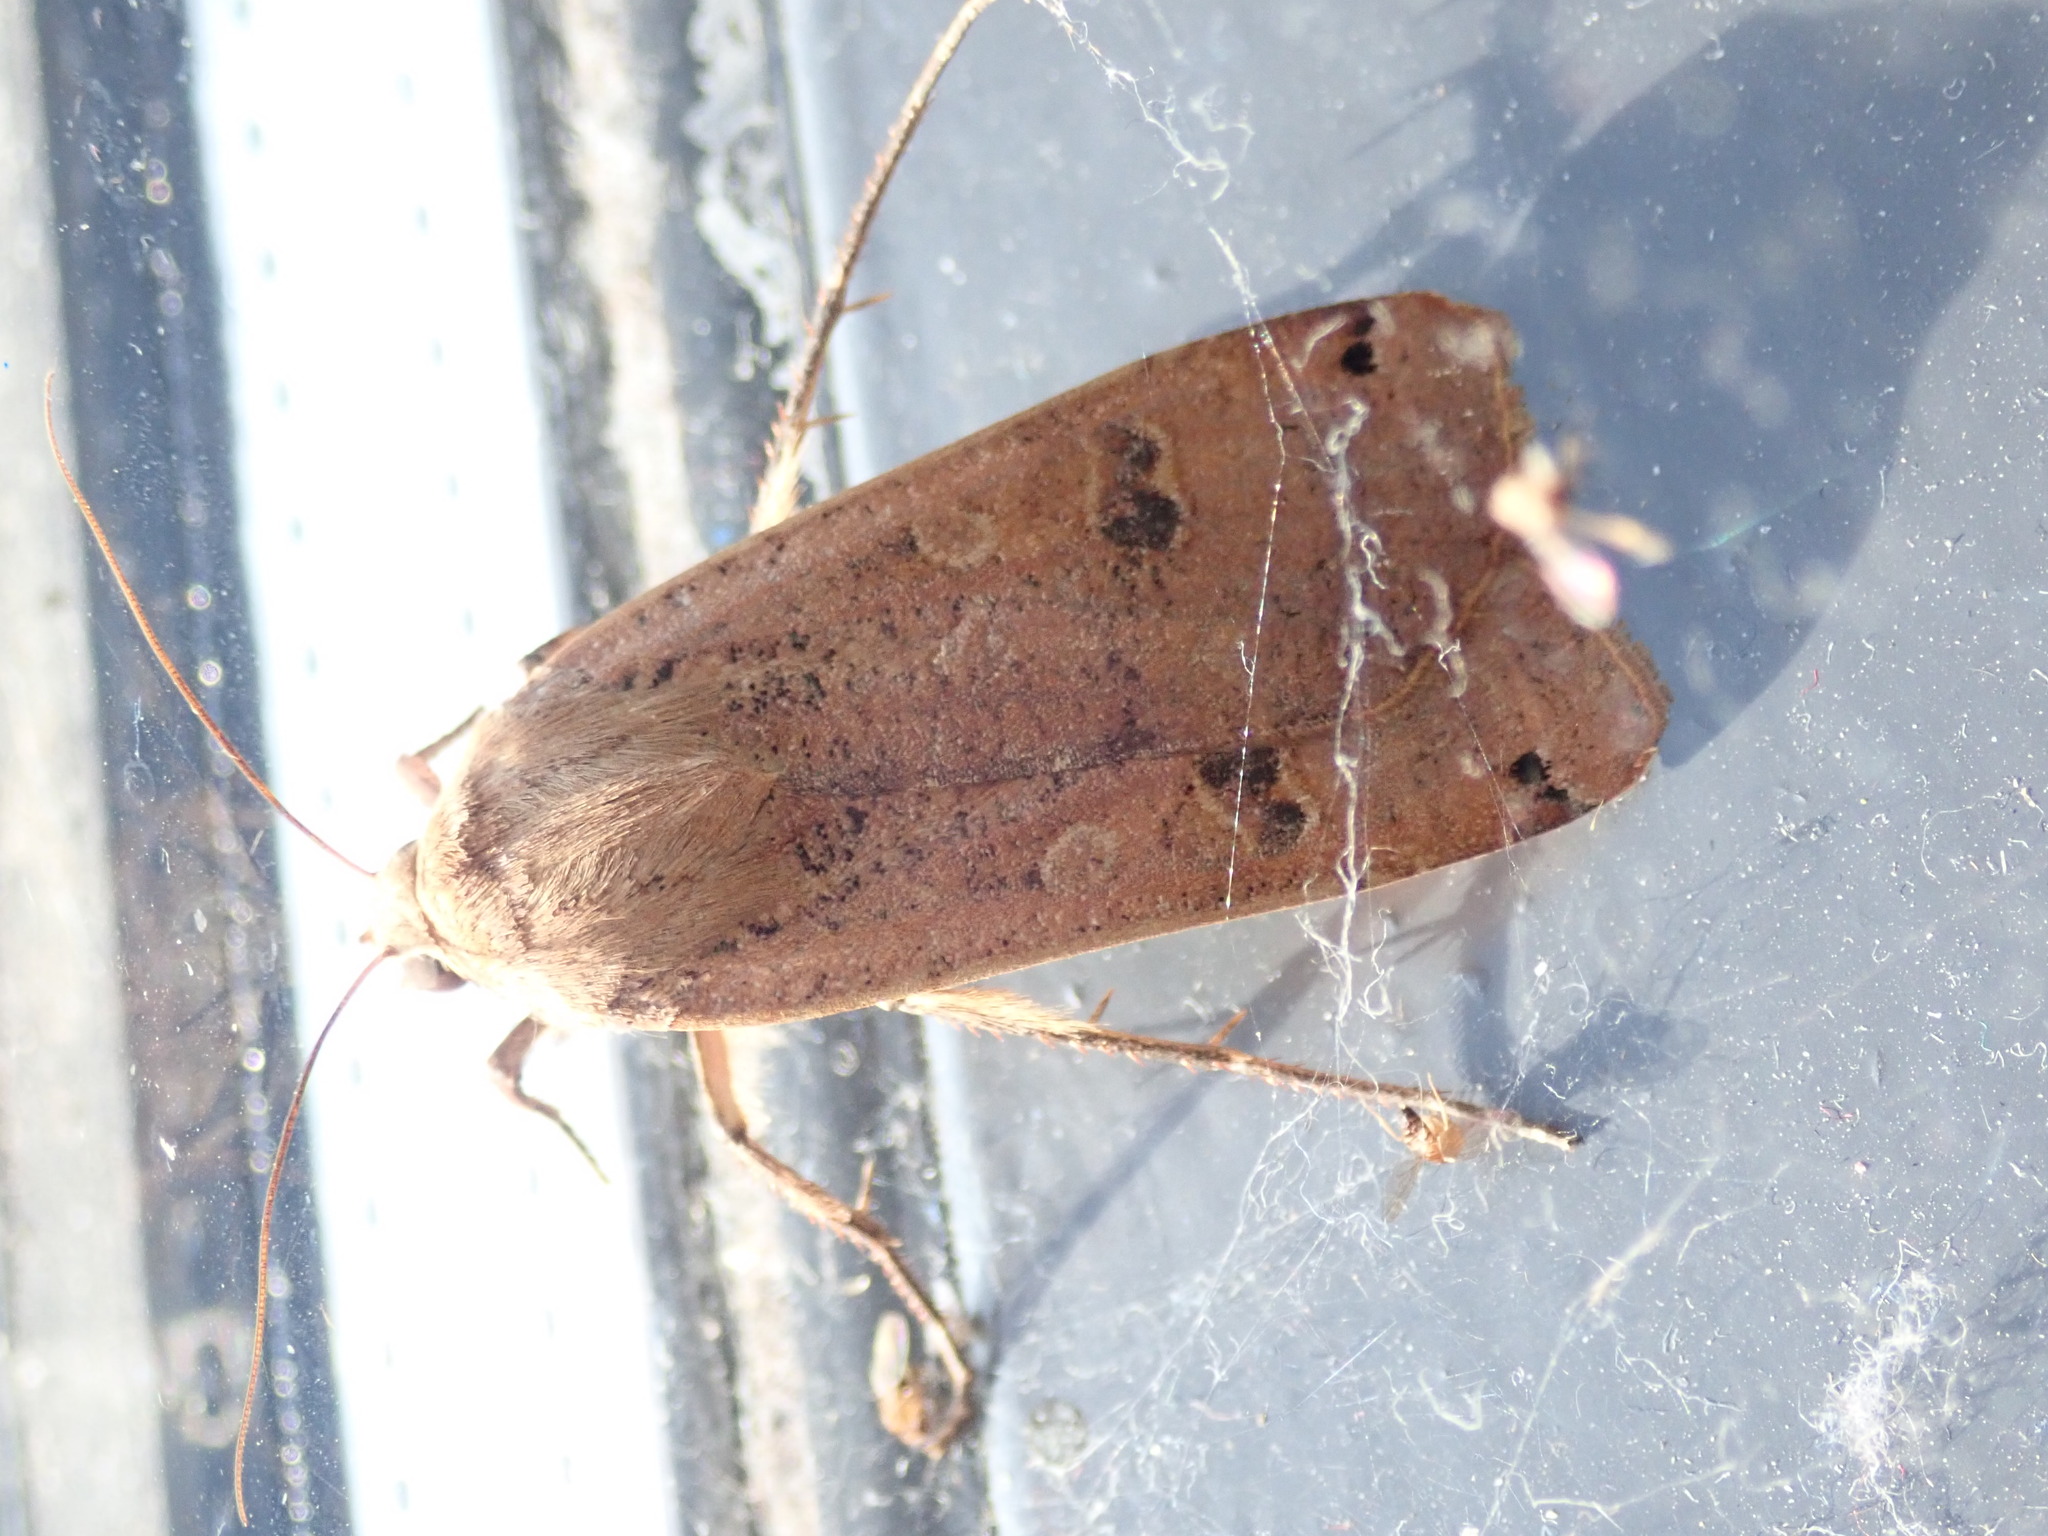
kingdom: Animalia
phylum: Arthropoda
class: Insecta
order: Lepidoptera
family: Noctuidae
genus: Noctua
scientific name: Noctua pronuba
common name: Large yellow underwing
